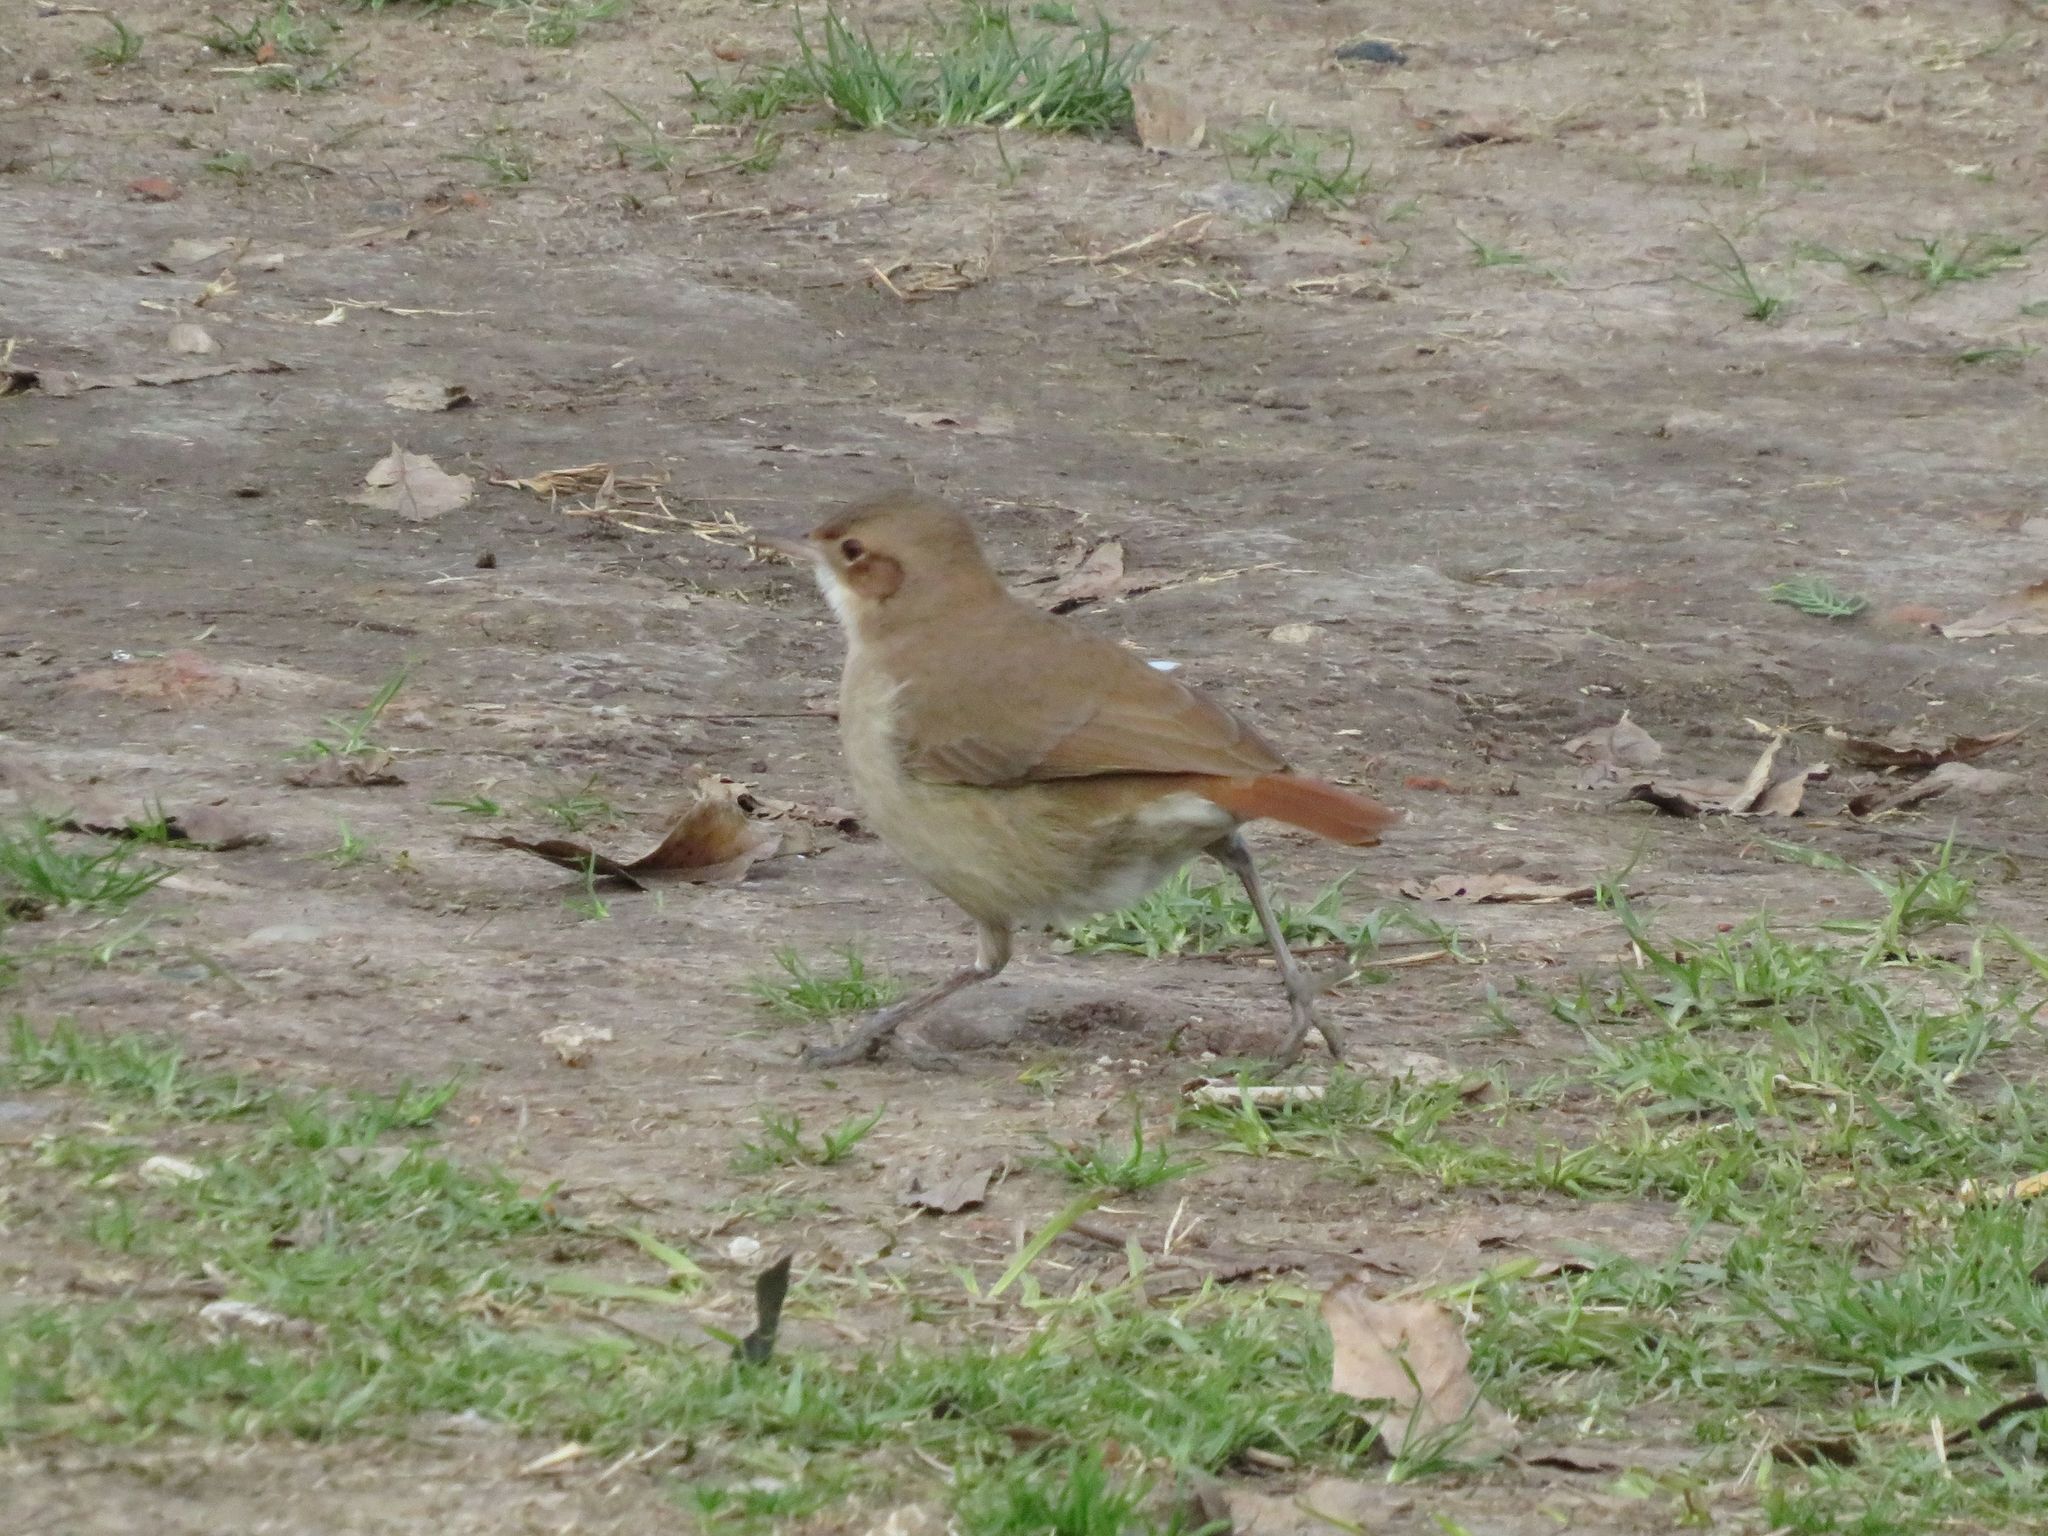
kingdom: Animalia
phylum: Chordata
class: Aves
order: Passeriformes
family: Furnariidae
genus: Furnarius
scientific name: Furnarius rufus
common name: Rufous hornero
